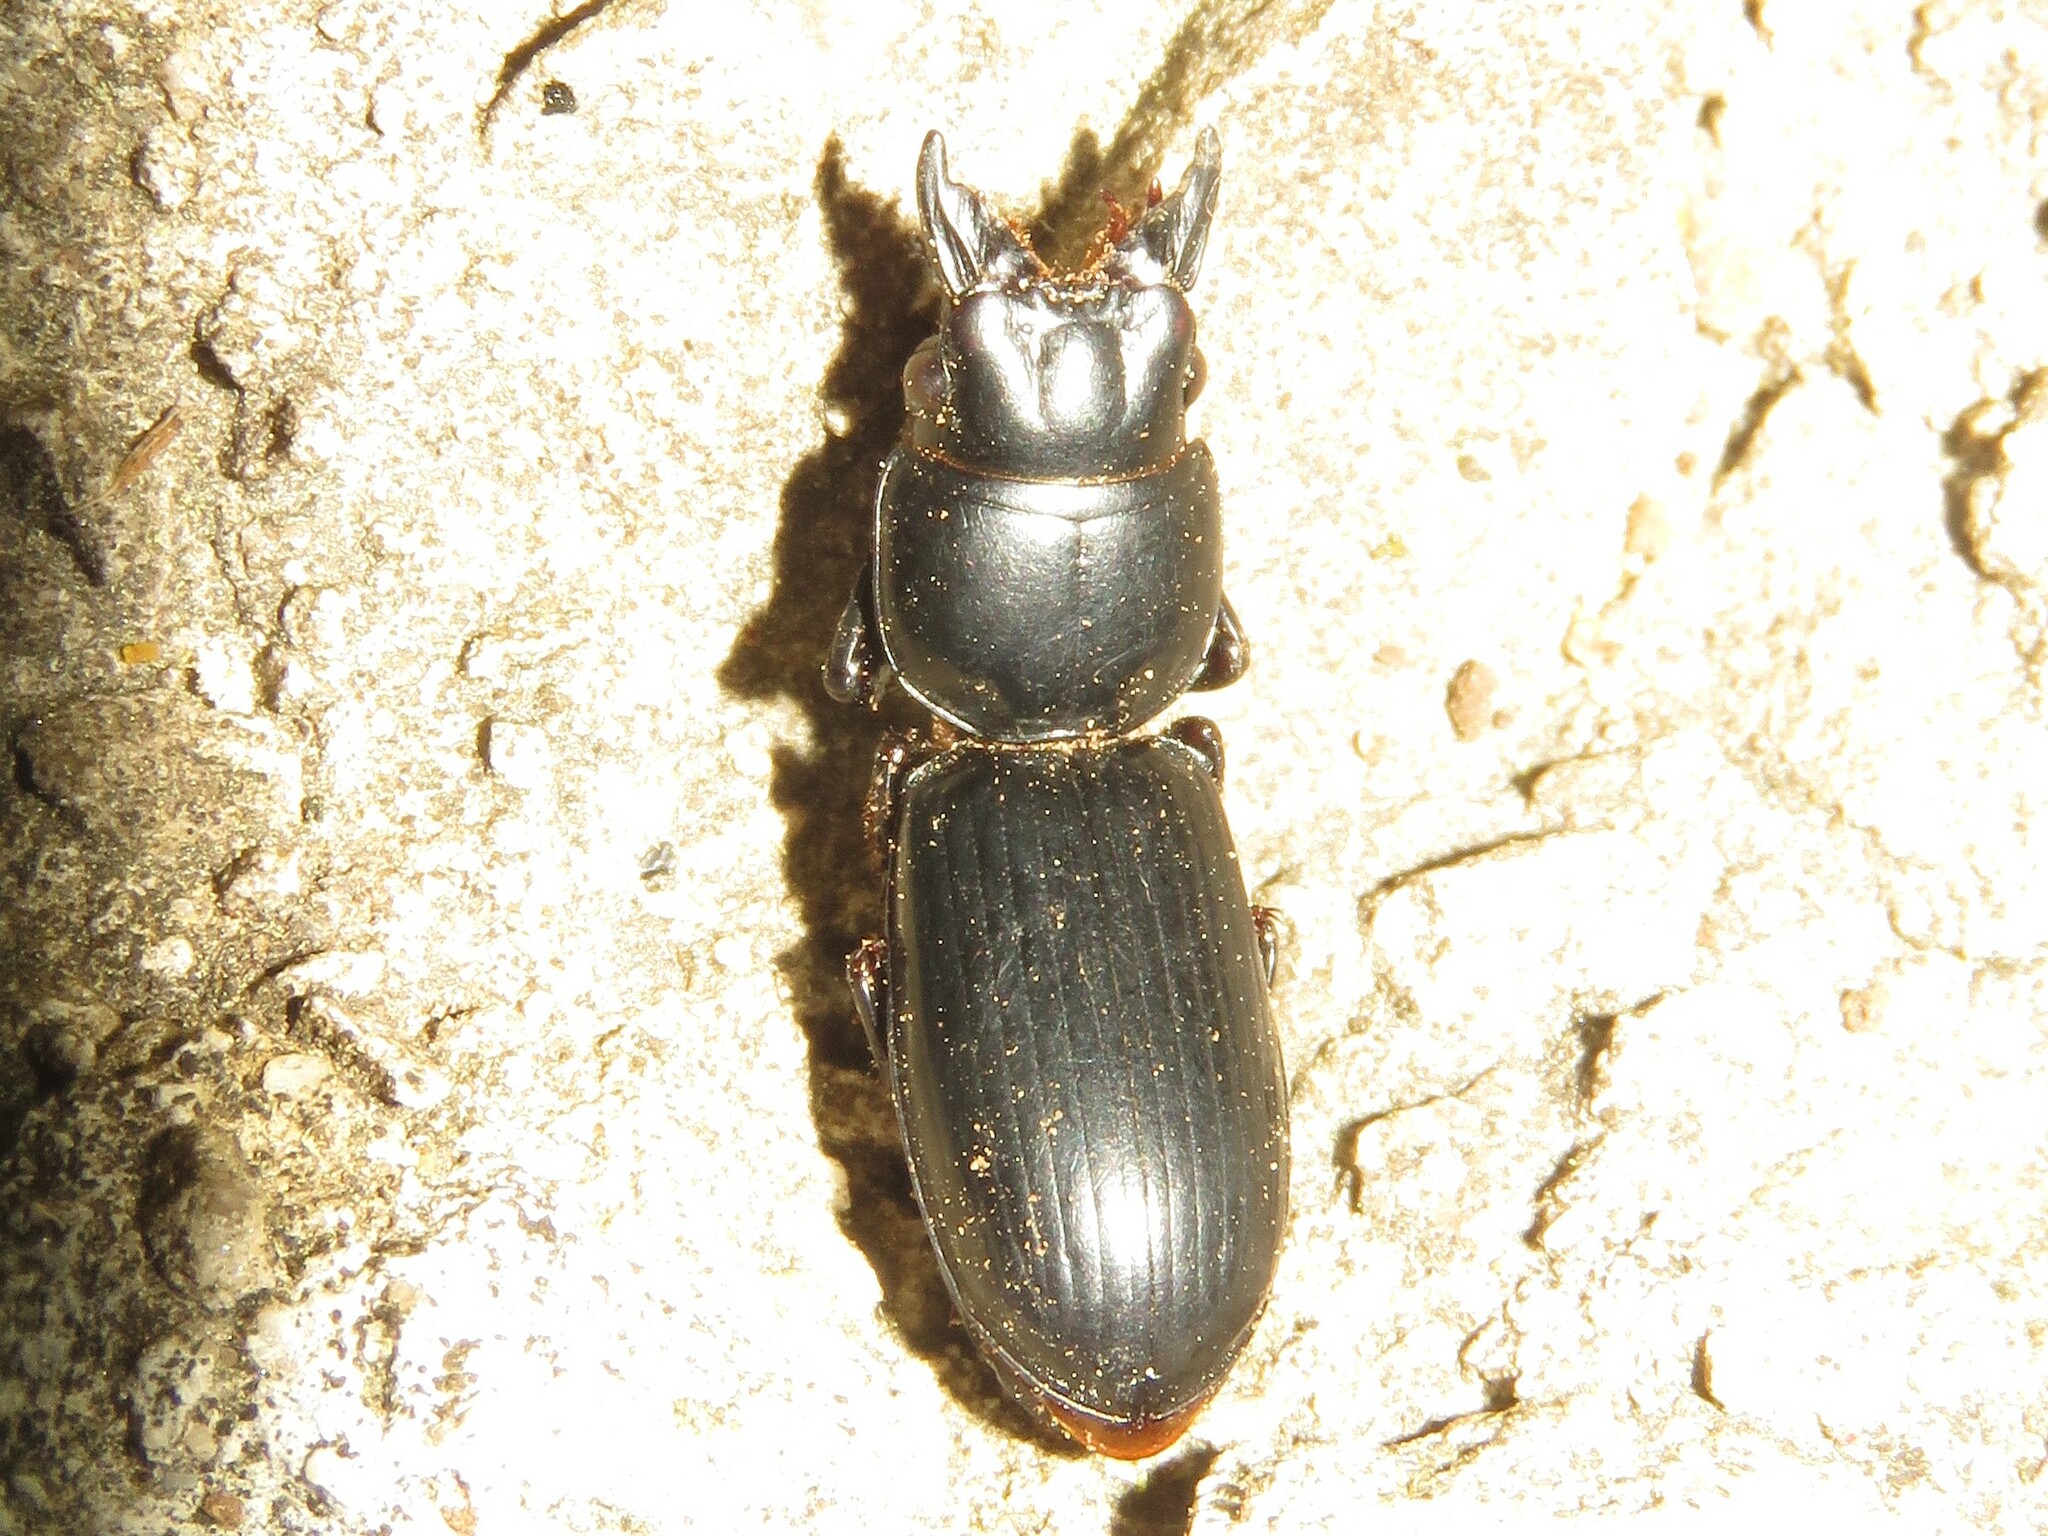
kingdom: Animalia
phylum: Arthropoda
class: Insecta
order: Coleoptera
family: Carabidae
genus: Scarites
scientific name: Scarites subterraneus
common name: Big-headed ground beetle
